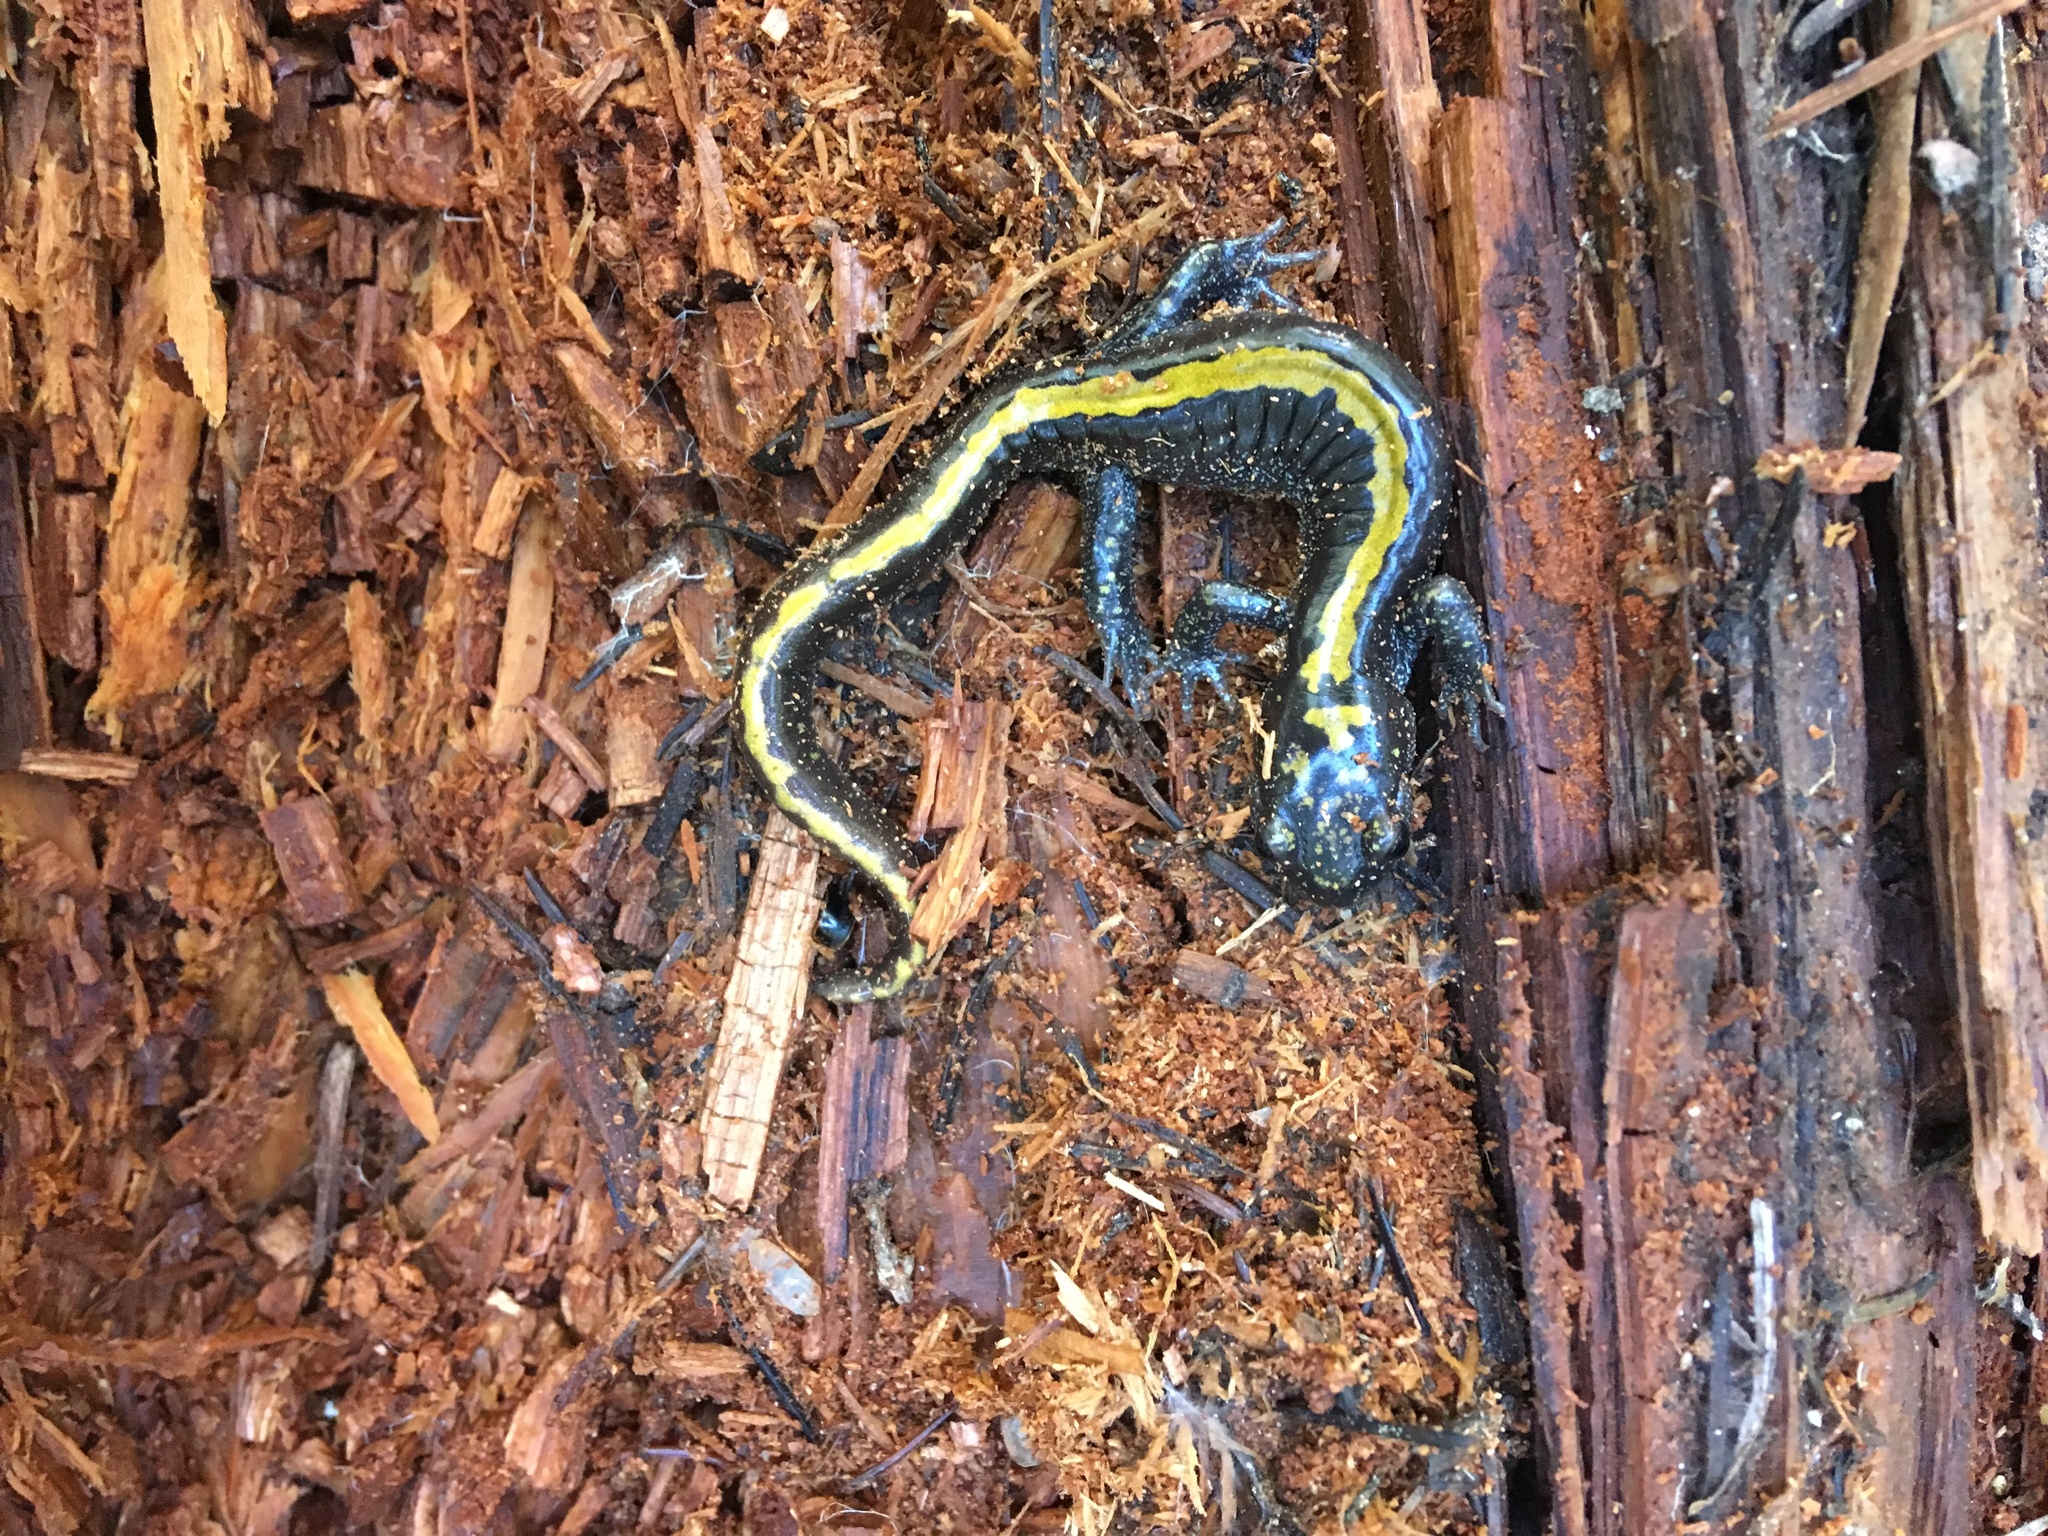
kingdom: Animalia
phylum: Chordata
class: Amphibia
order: Caudata
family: Ambystomatidae
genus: Ambystoma
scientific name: Ambystoma macrodactylum
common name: Long-toed salamander
